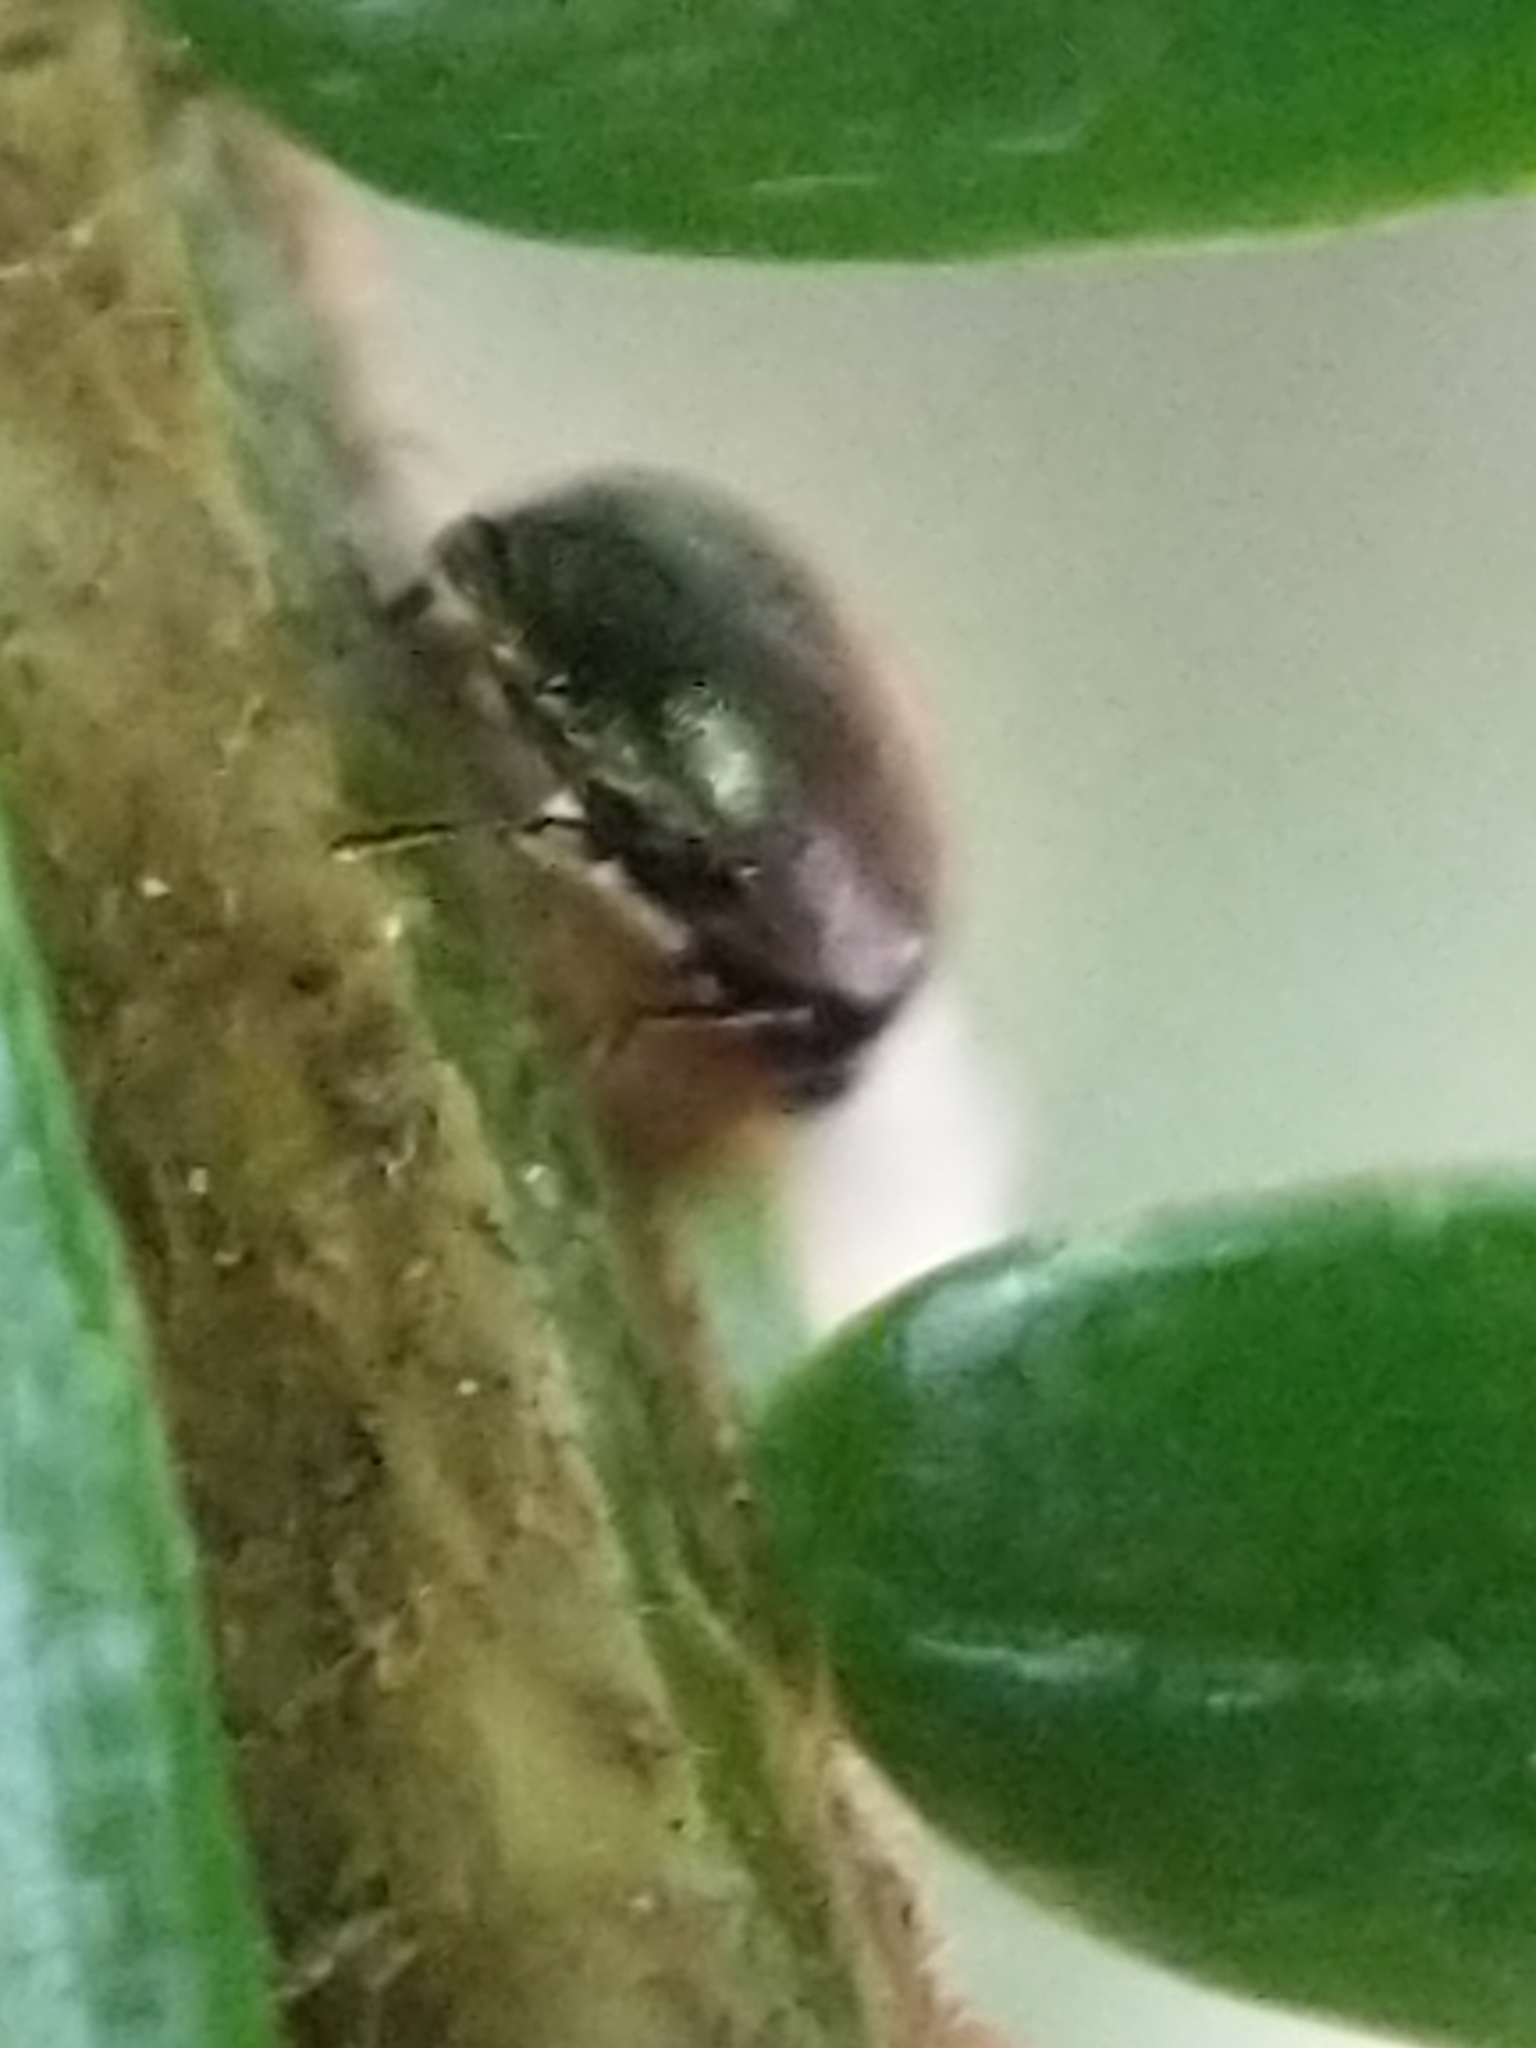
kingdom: Animalia
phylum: Arthropoda
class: Insecta
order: Coleoptera
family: Coccinellidae
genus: Sasajiscymnus
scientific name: Sasajiscymnus
